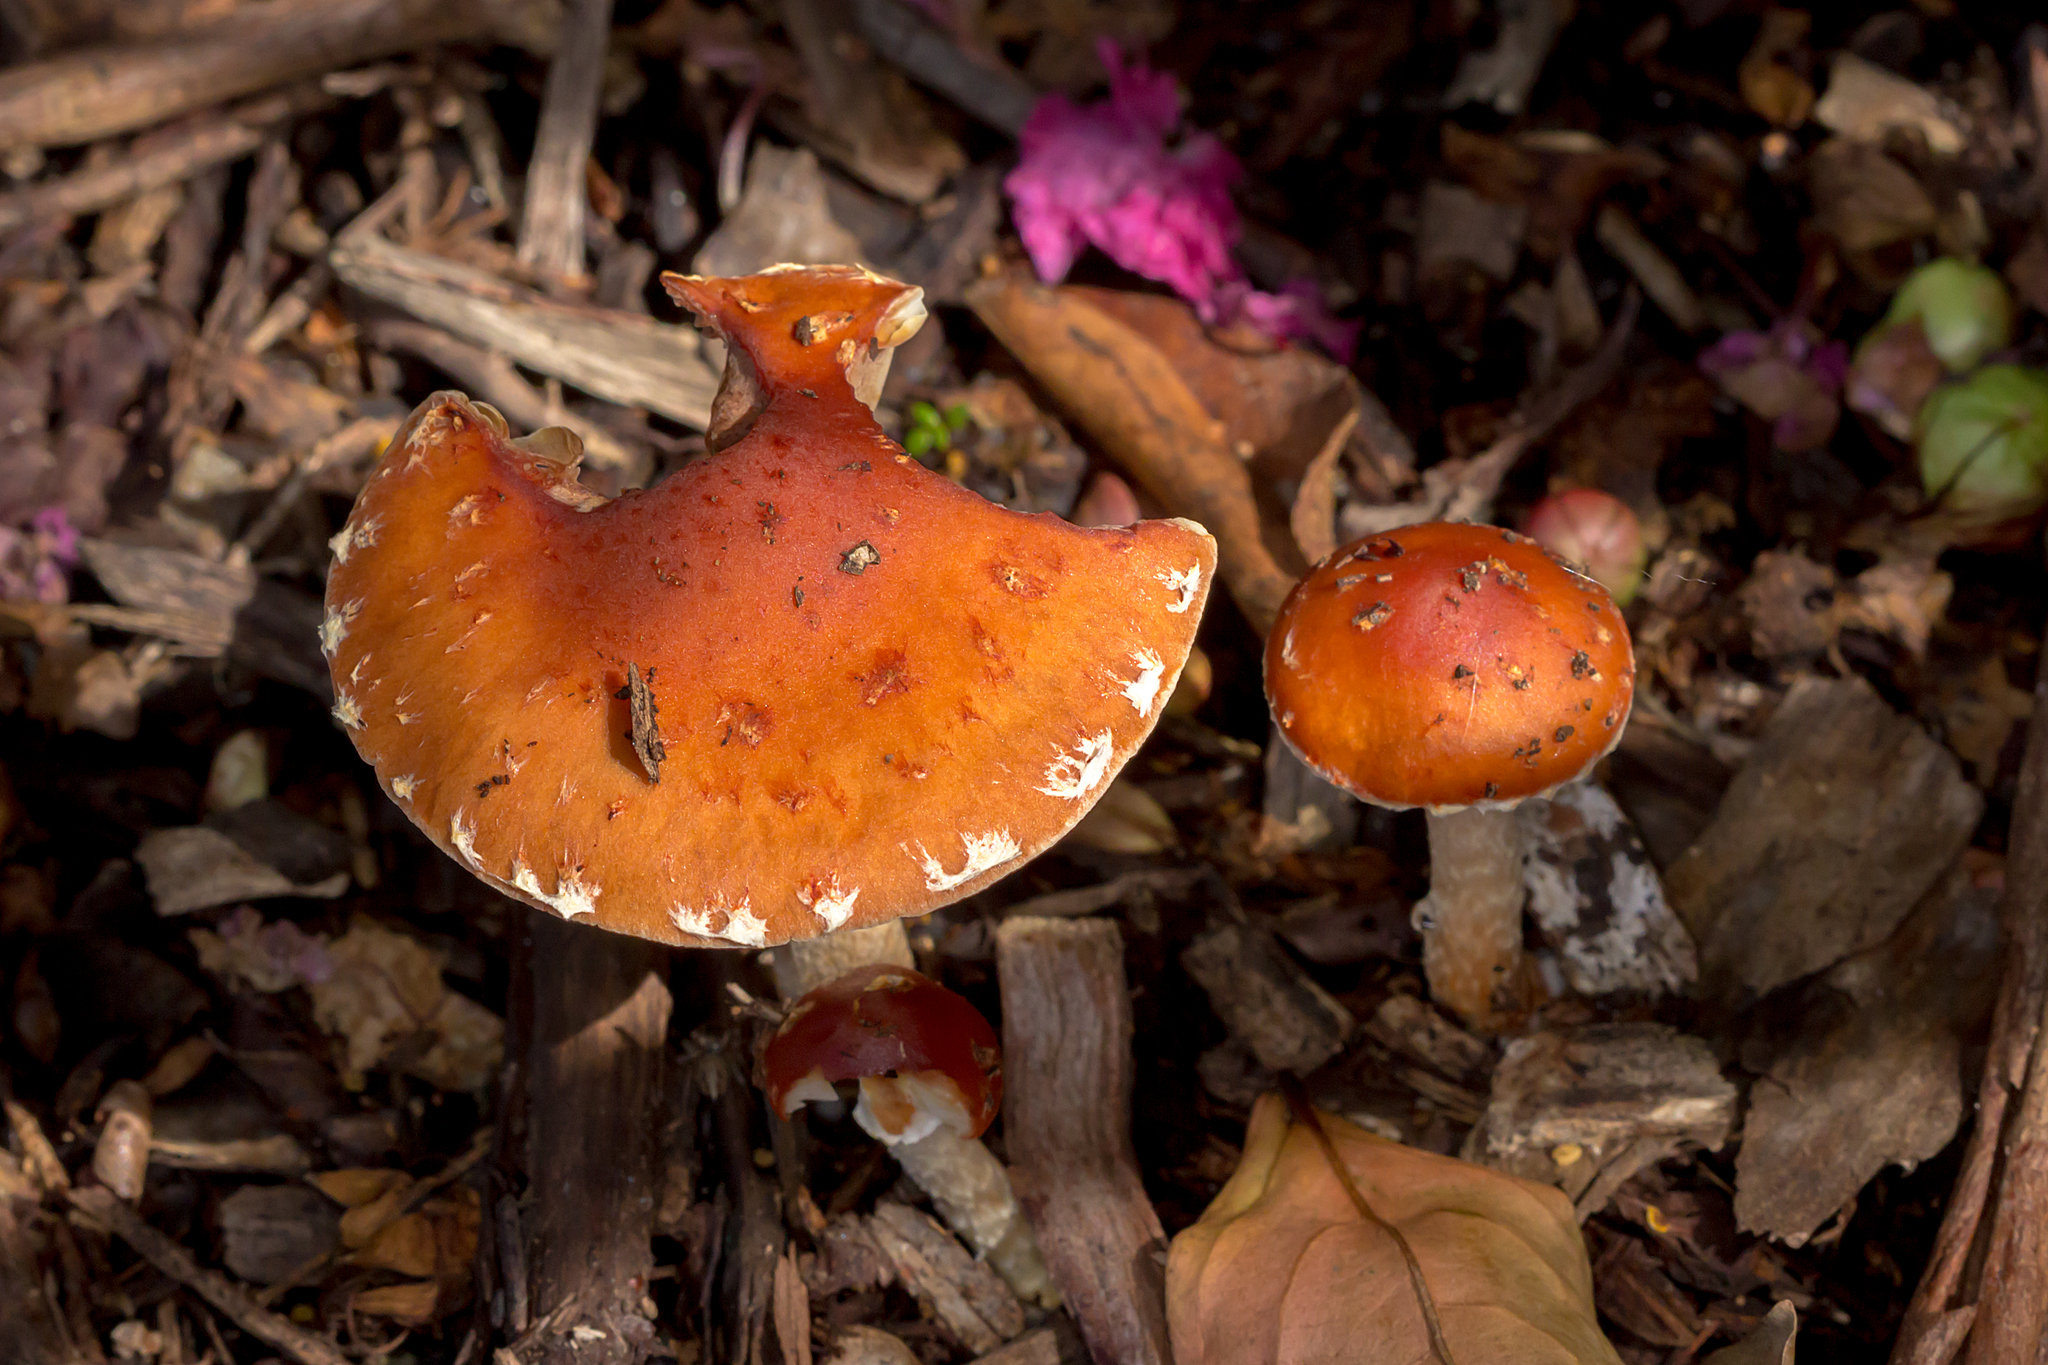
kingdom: Fungi
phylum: Basidiomycota
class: Agaricomycetes
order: Agaricales
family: Strophariaceae
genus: Leratiomyces
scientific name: Leratiomyces ceres
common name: Redlead roundhead
